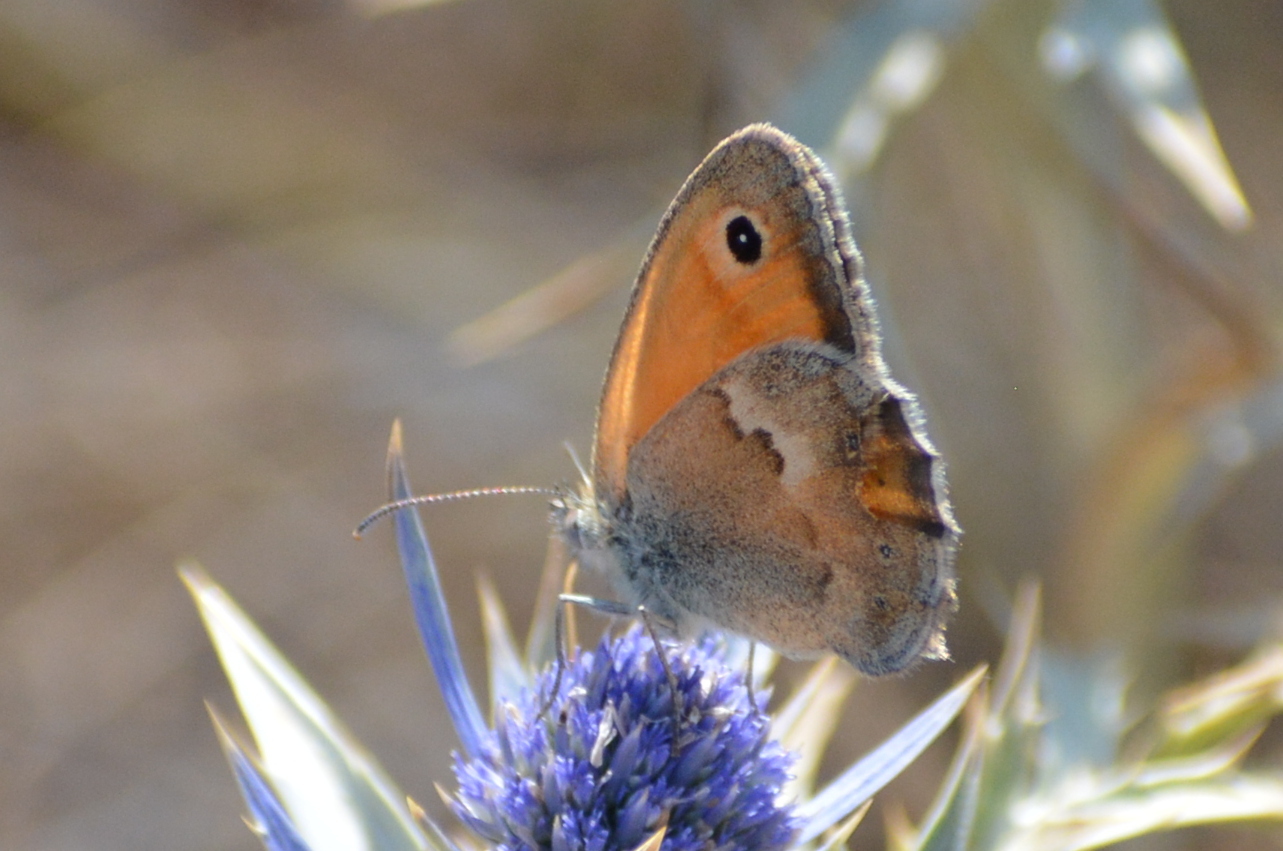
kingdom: Animalia
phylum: Arthropoda
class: Insecta
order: Lepidoptera
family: Nymphalidae
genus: Coenonympha
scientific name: Coenonympha pamphilus
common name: Small heath
